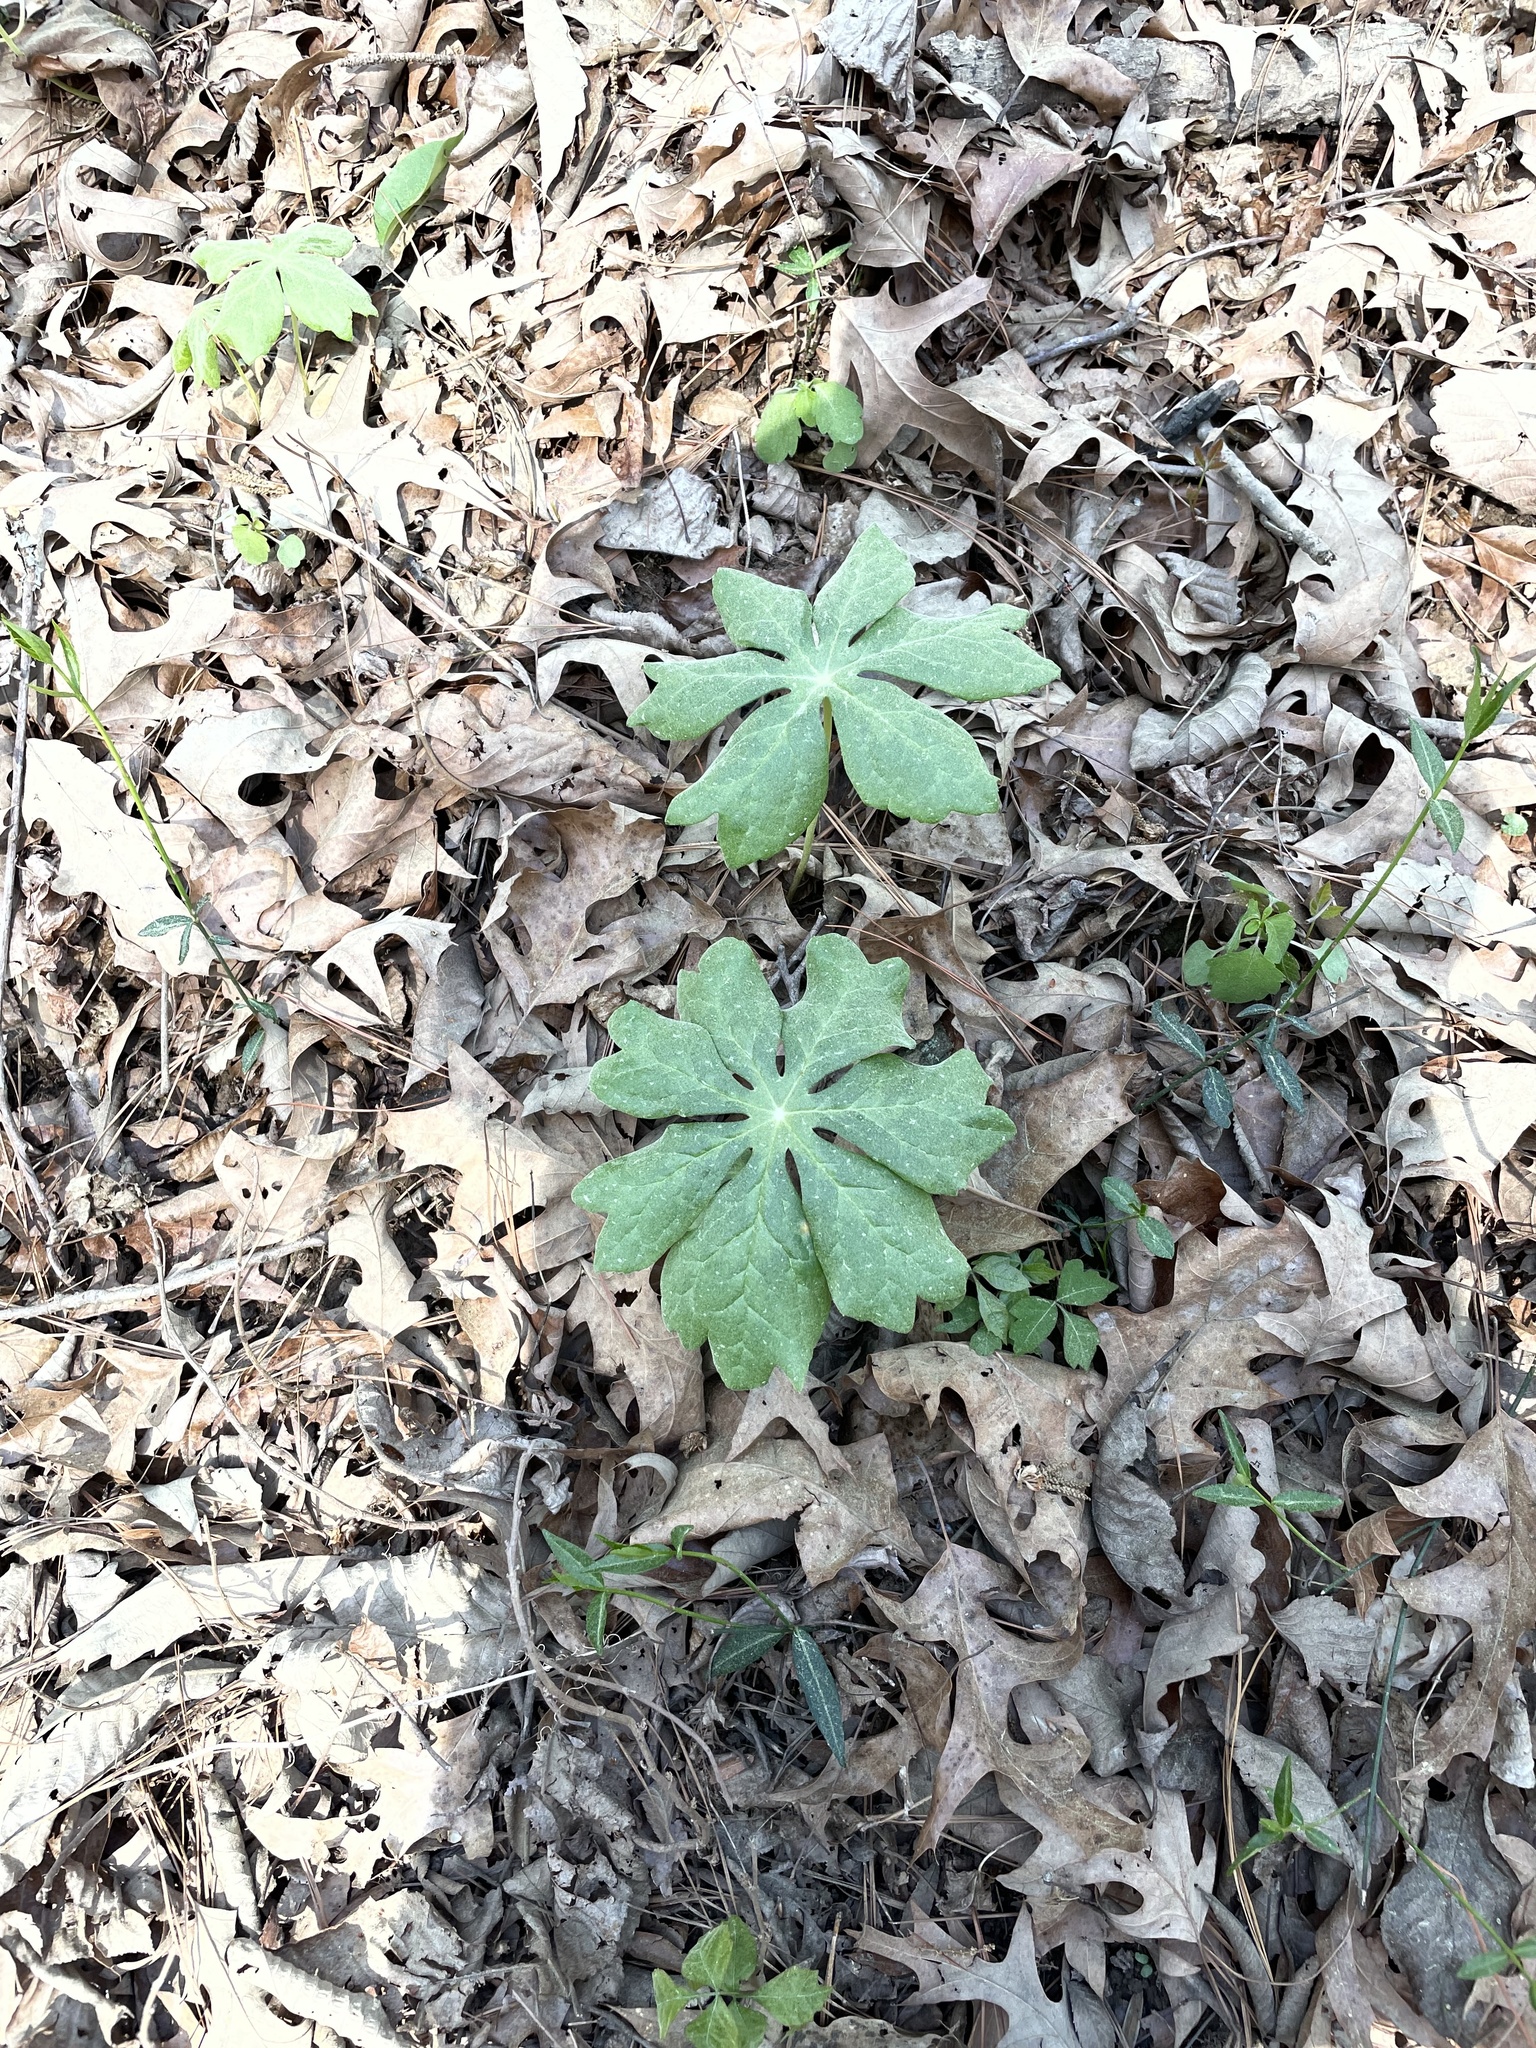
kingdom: Plantae
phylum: Tracheophyta
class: Magnoliopsida
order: Ranunculales
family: Berberidaceae
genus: Podophyllum
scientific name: Podophyllum peltatum
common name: Wild mandrake
